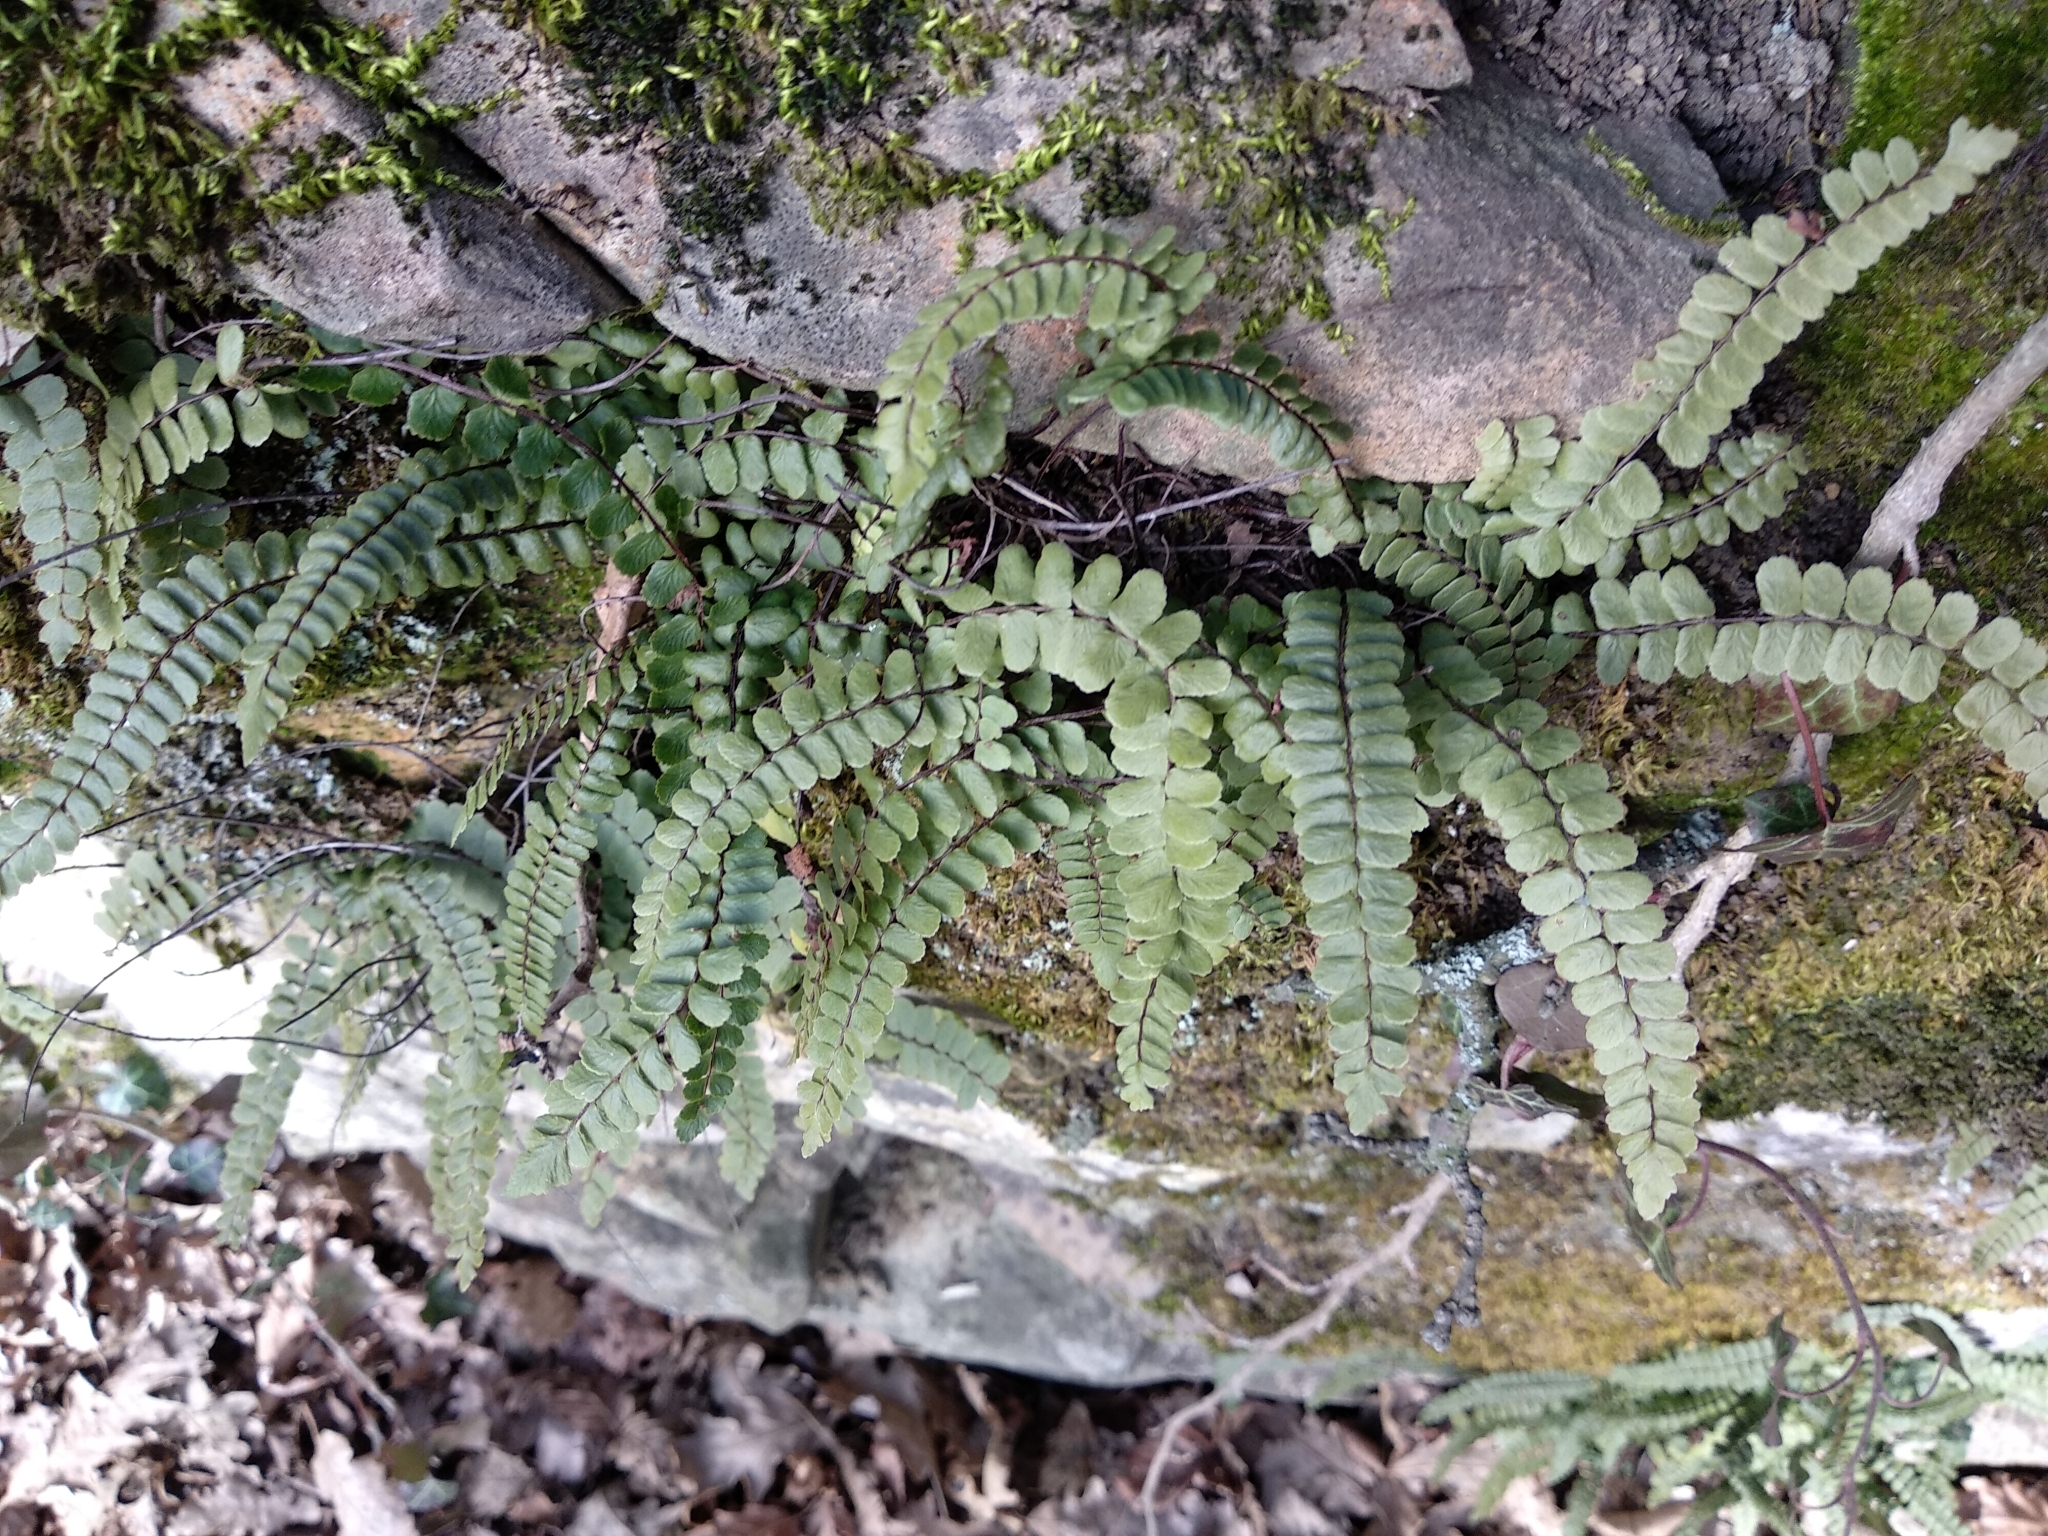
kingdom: Plantae
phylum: Tracheophyta
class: Polypodiopsida
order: Polypodiales
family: Aspleniaceae
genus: Asplenium
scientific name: Asplenium trichomanes
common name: Maidenhair spleenwort
